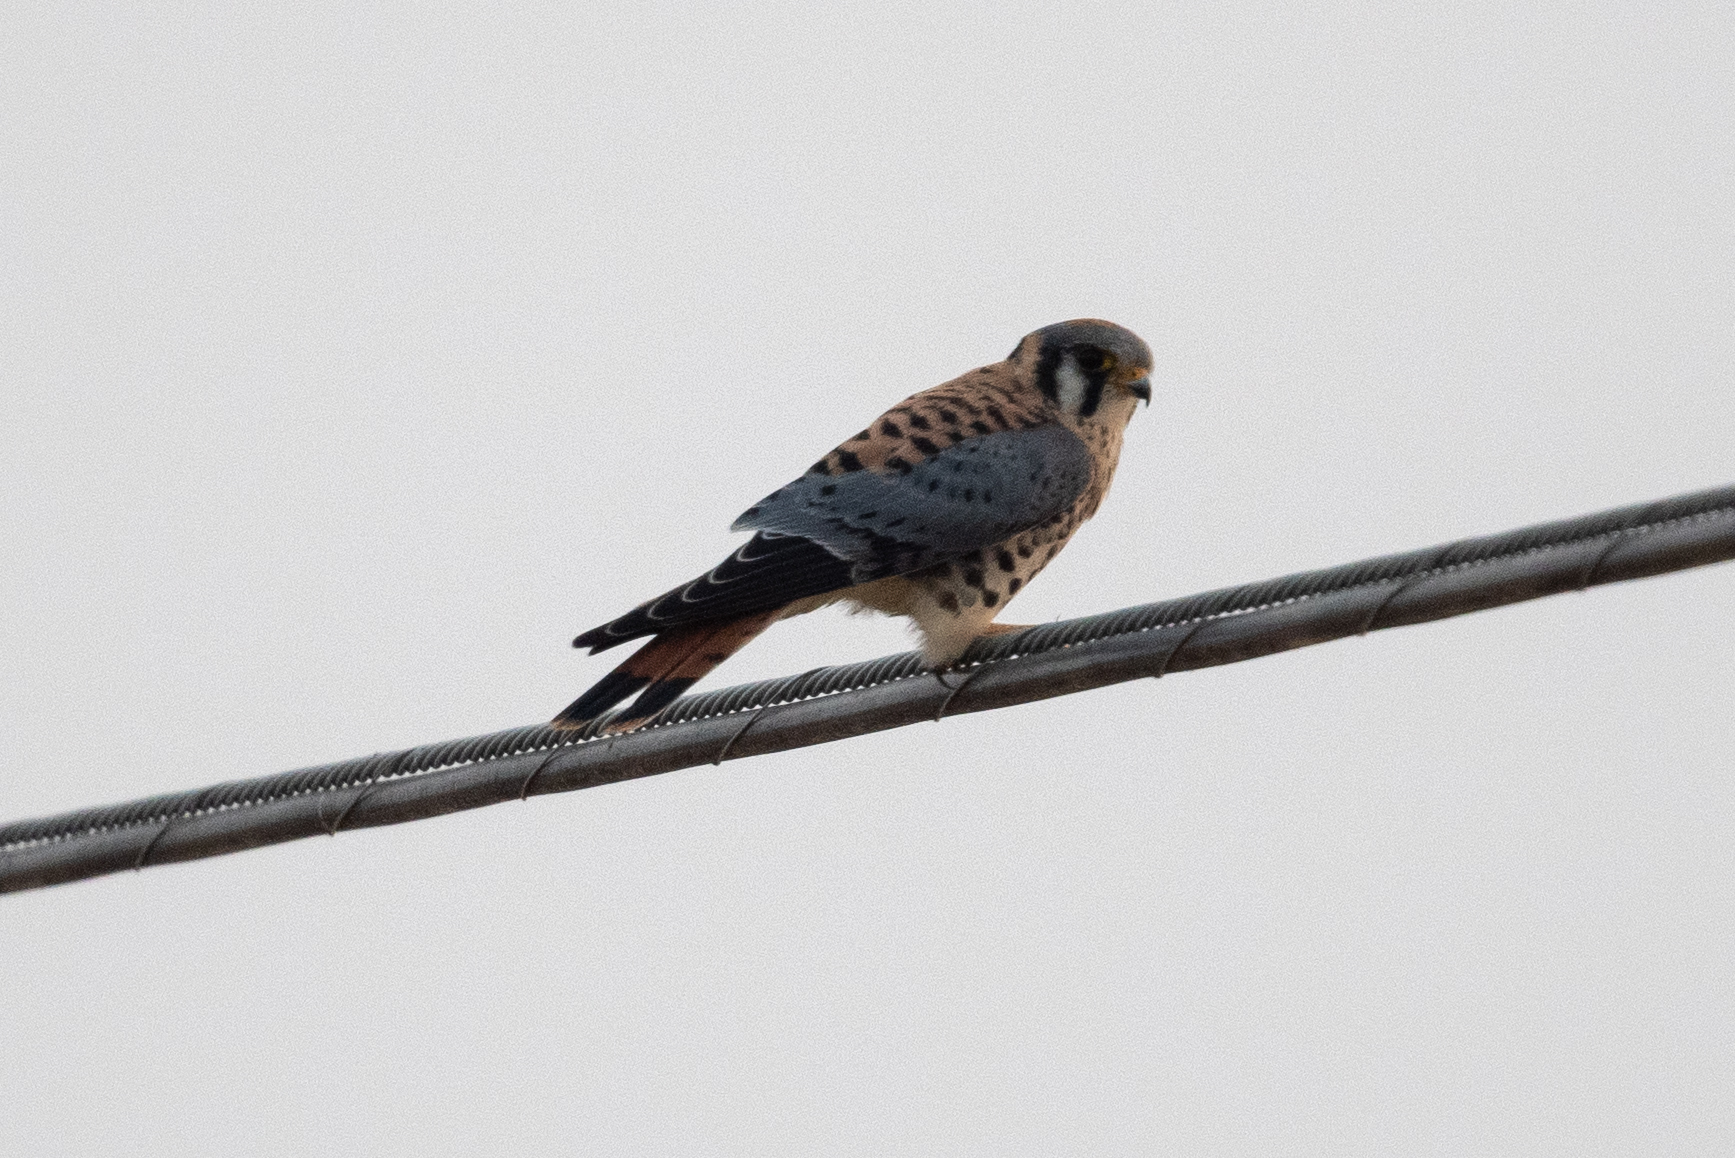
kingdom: Animalia
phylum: Chordata
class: Aves
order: Falconiformes
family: Falconidae
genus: Falco
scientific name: Falco sparverius
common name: American kestrel
